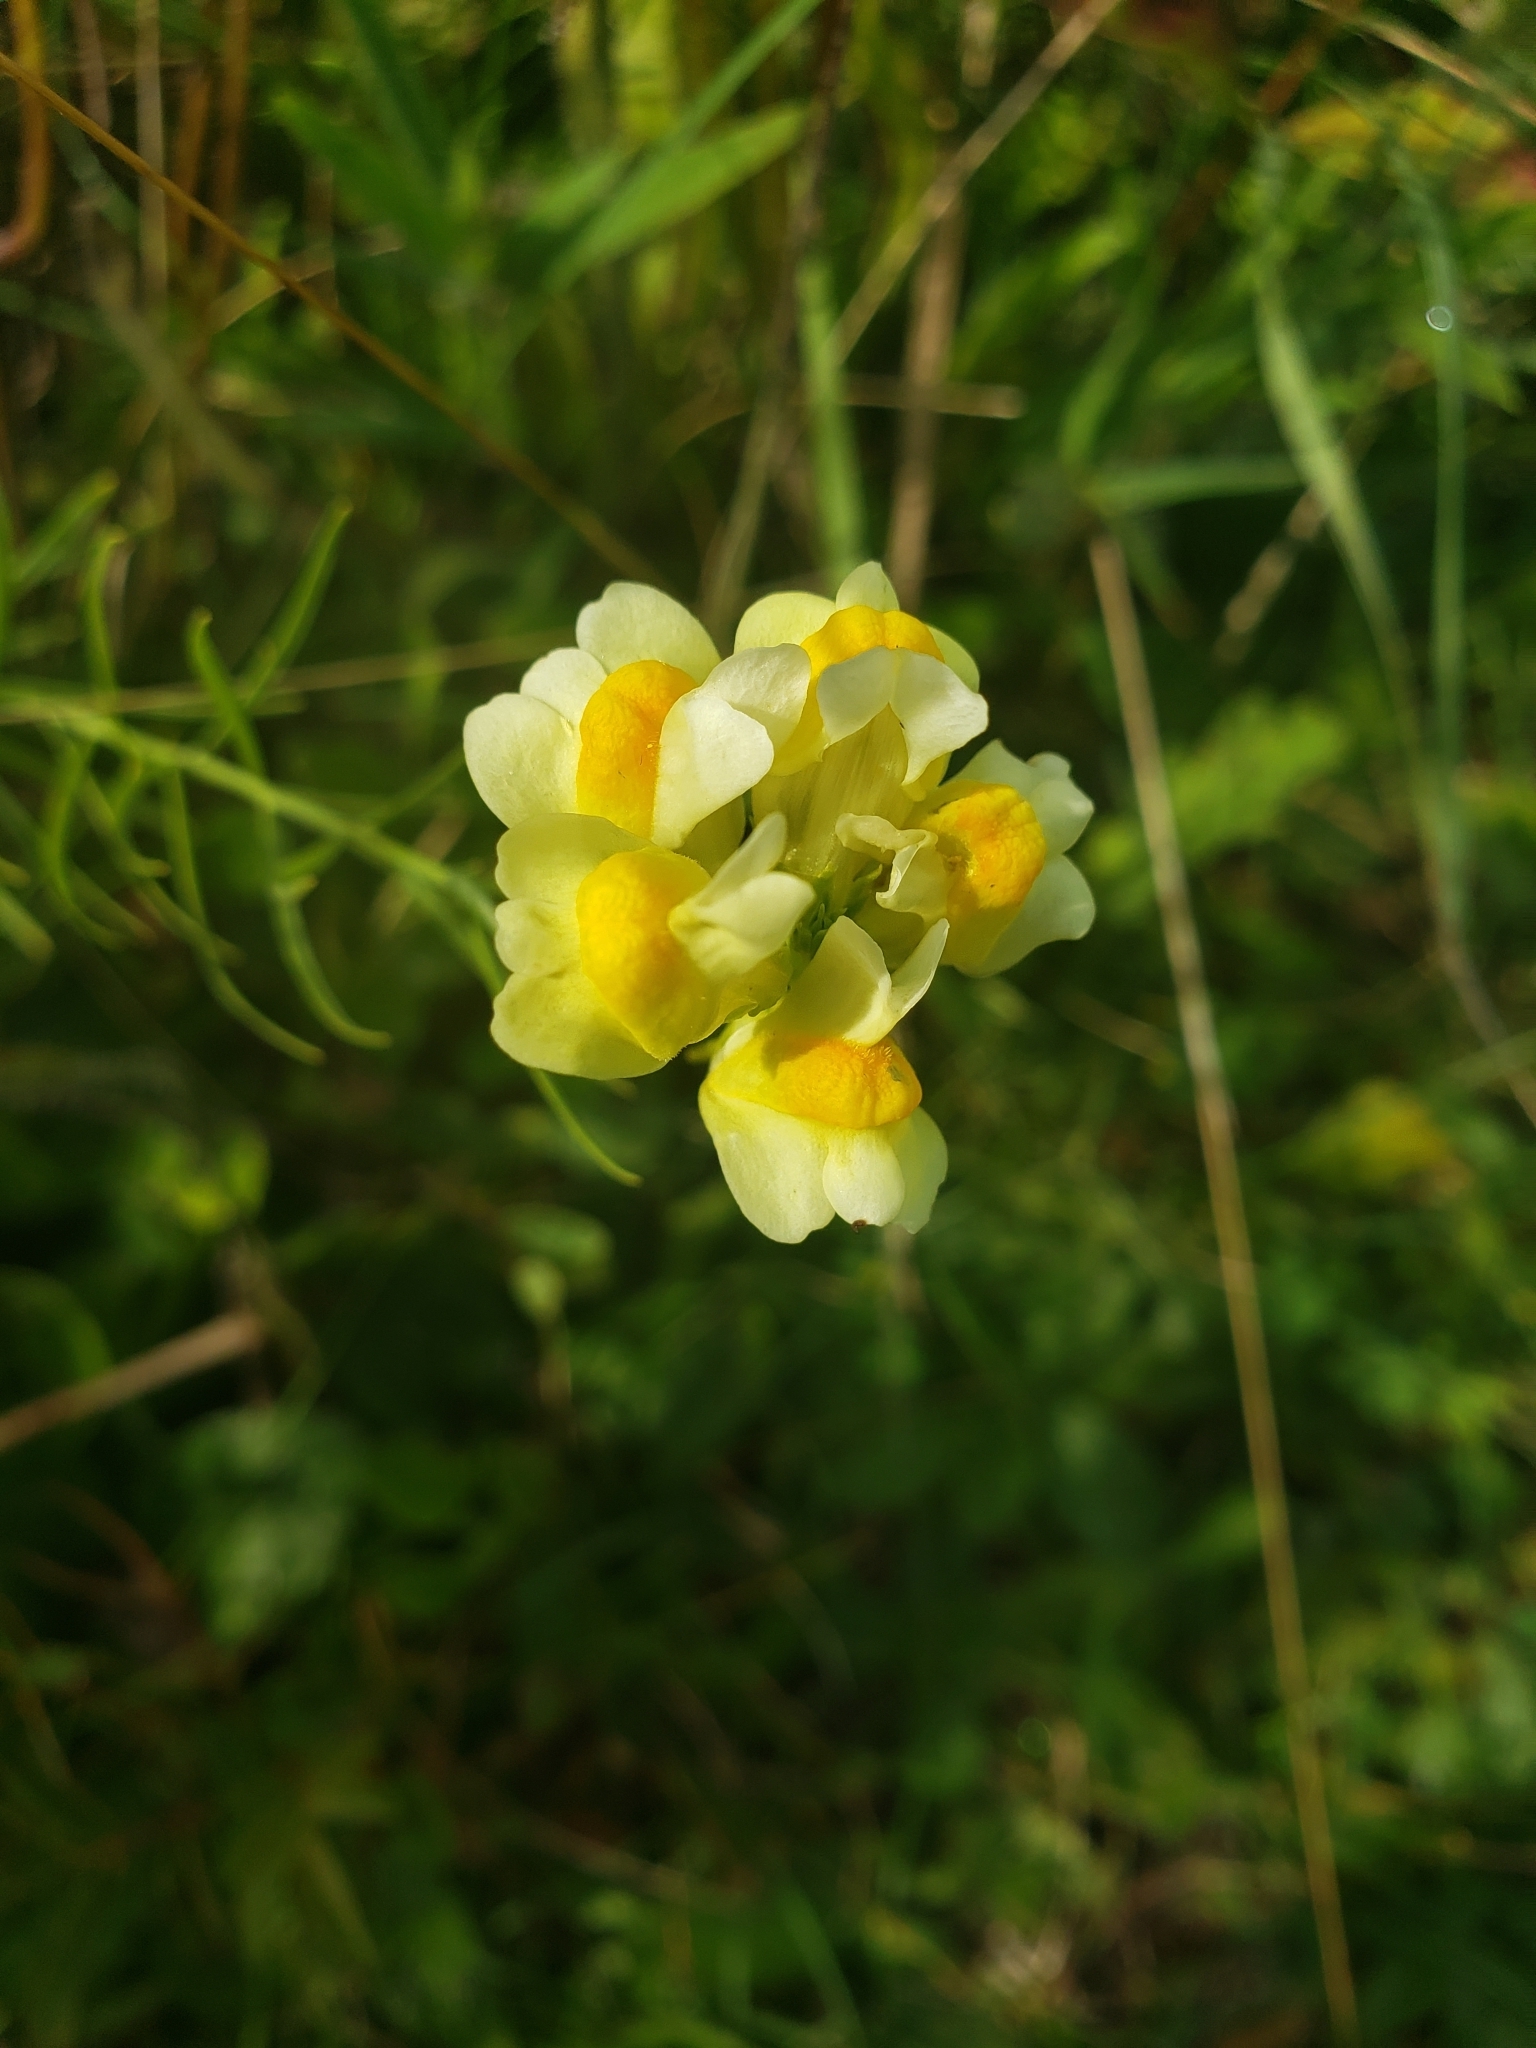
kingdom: Plantae
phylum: Tracheophyta
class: Magnoliopsida
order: Lamiales
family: Plantaginaceae
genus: Linaria
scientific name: Linaria vulgaris
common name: Butter and eggs
